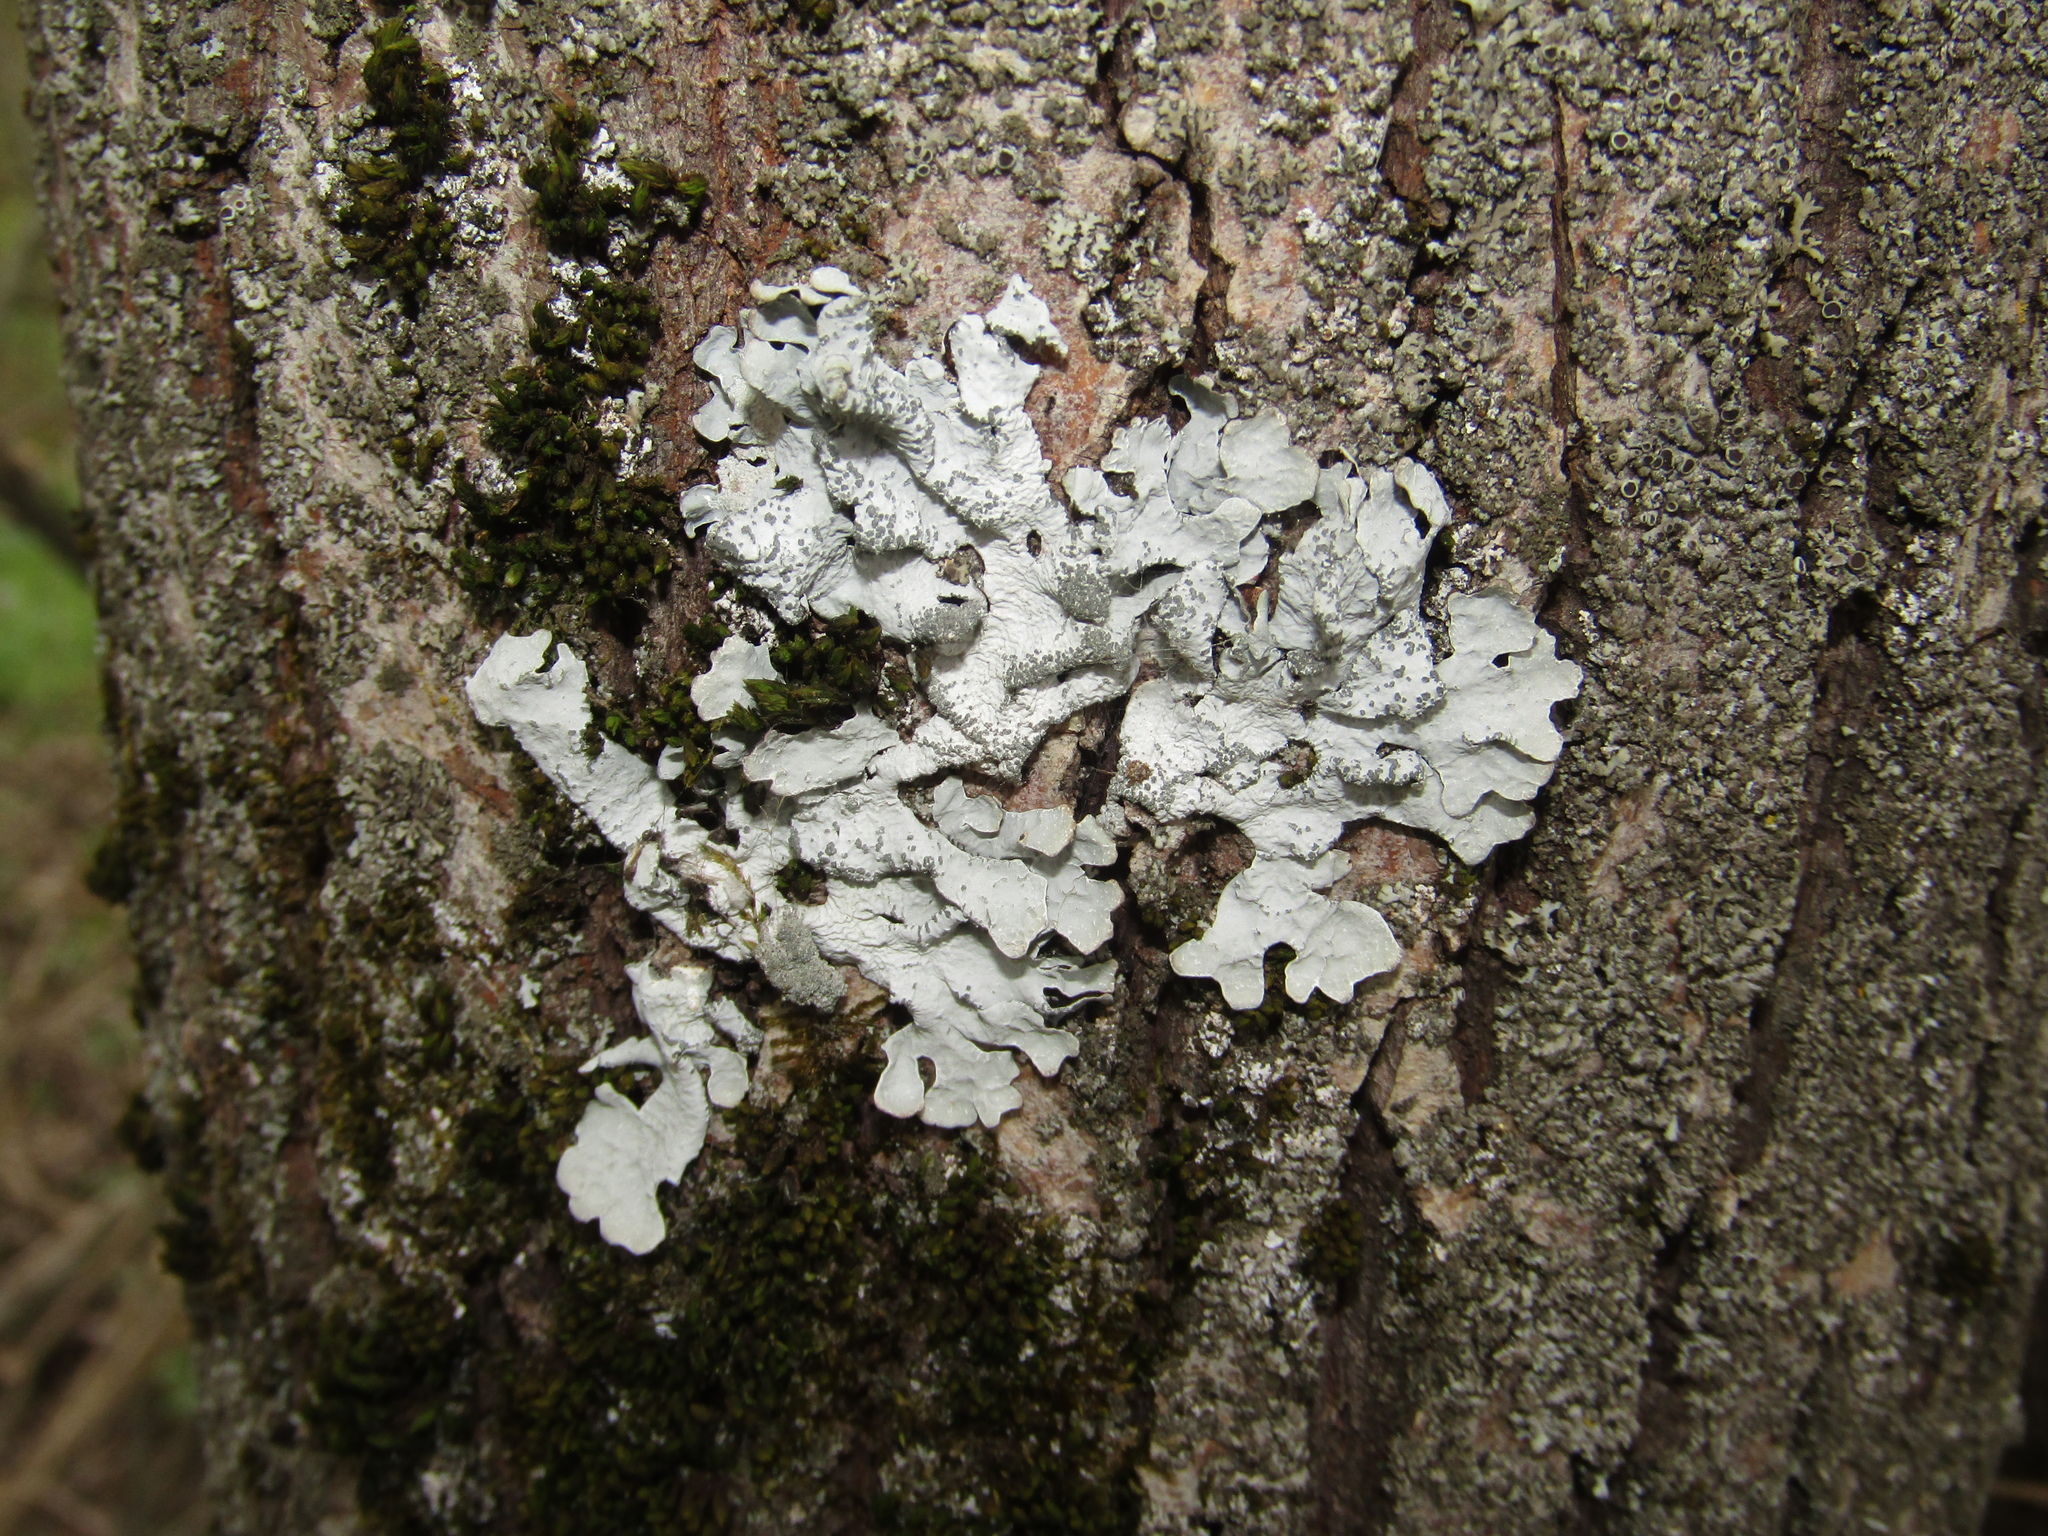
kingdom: Fungi
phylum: Ascomycota
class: Lecanoromycetes
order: Lecanorales
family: Parmeliaceae
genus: Parmelia
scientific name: Parmelia sulcata
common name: Netted shield lichen
